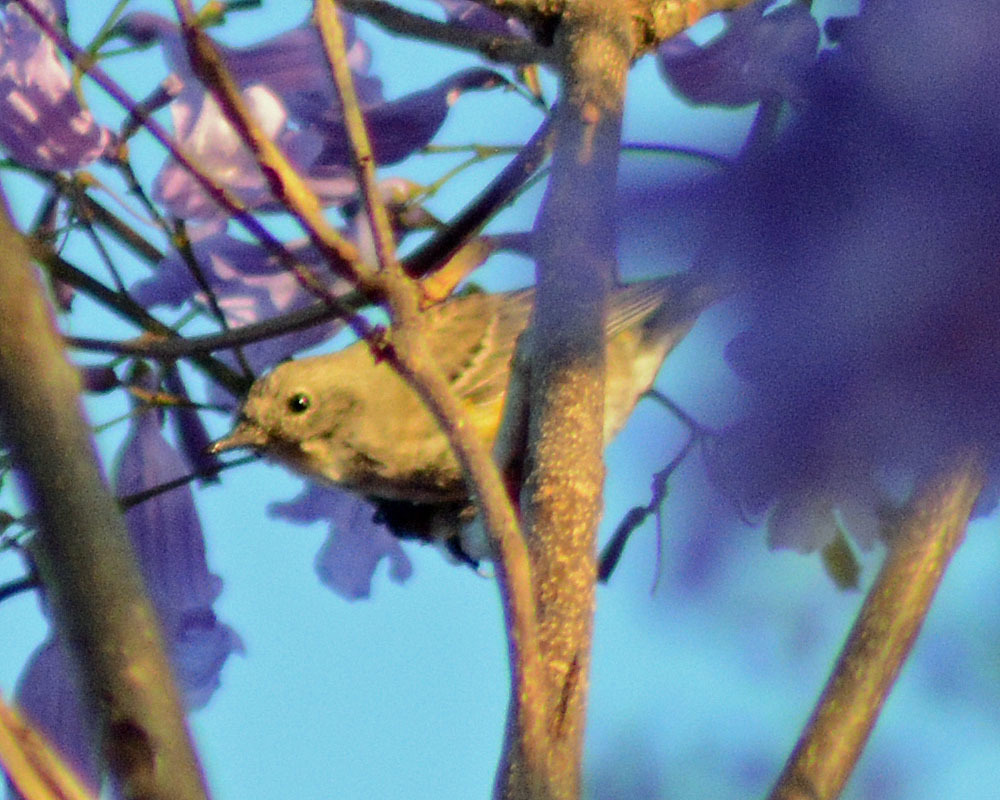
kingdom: Animalia
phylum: Chordata
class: Aves
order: Passeriformes
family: Parulidae
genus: Setophaga
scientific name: Setophaga coronata
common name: Myrtle warbler
